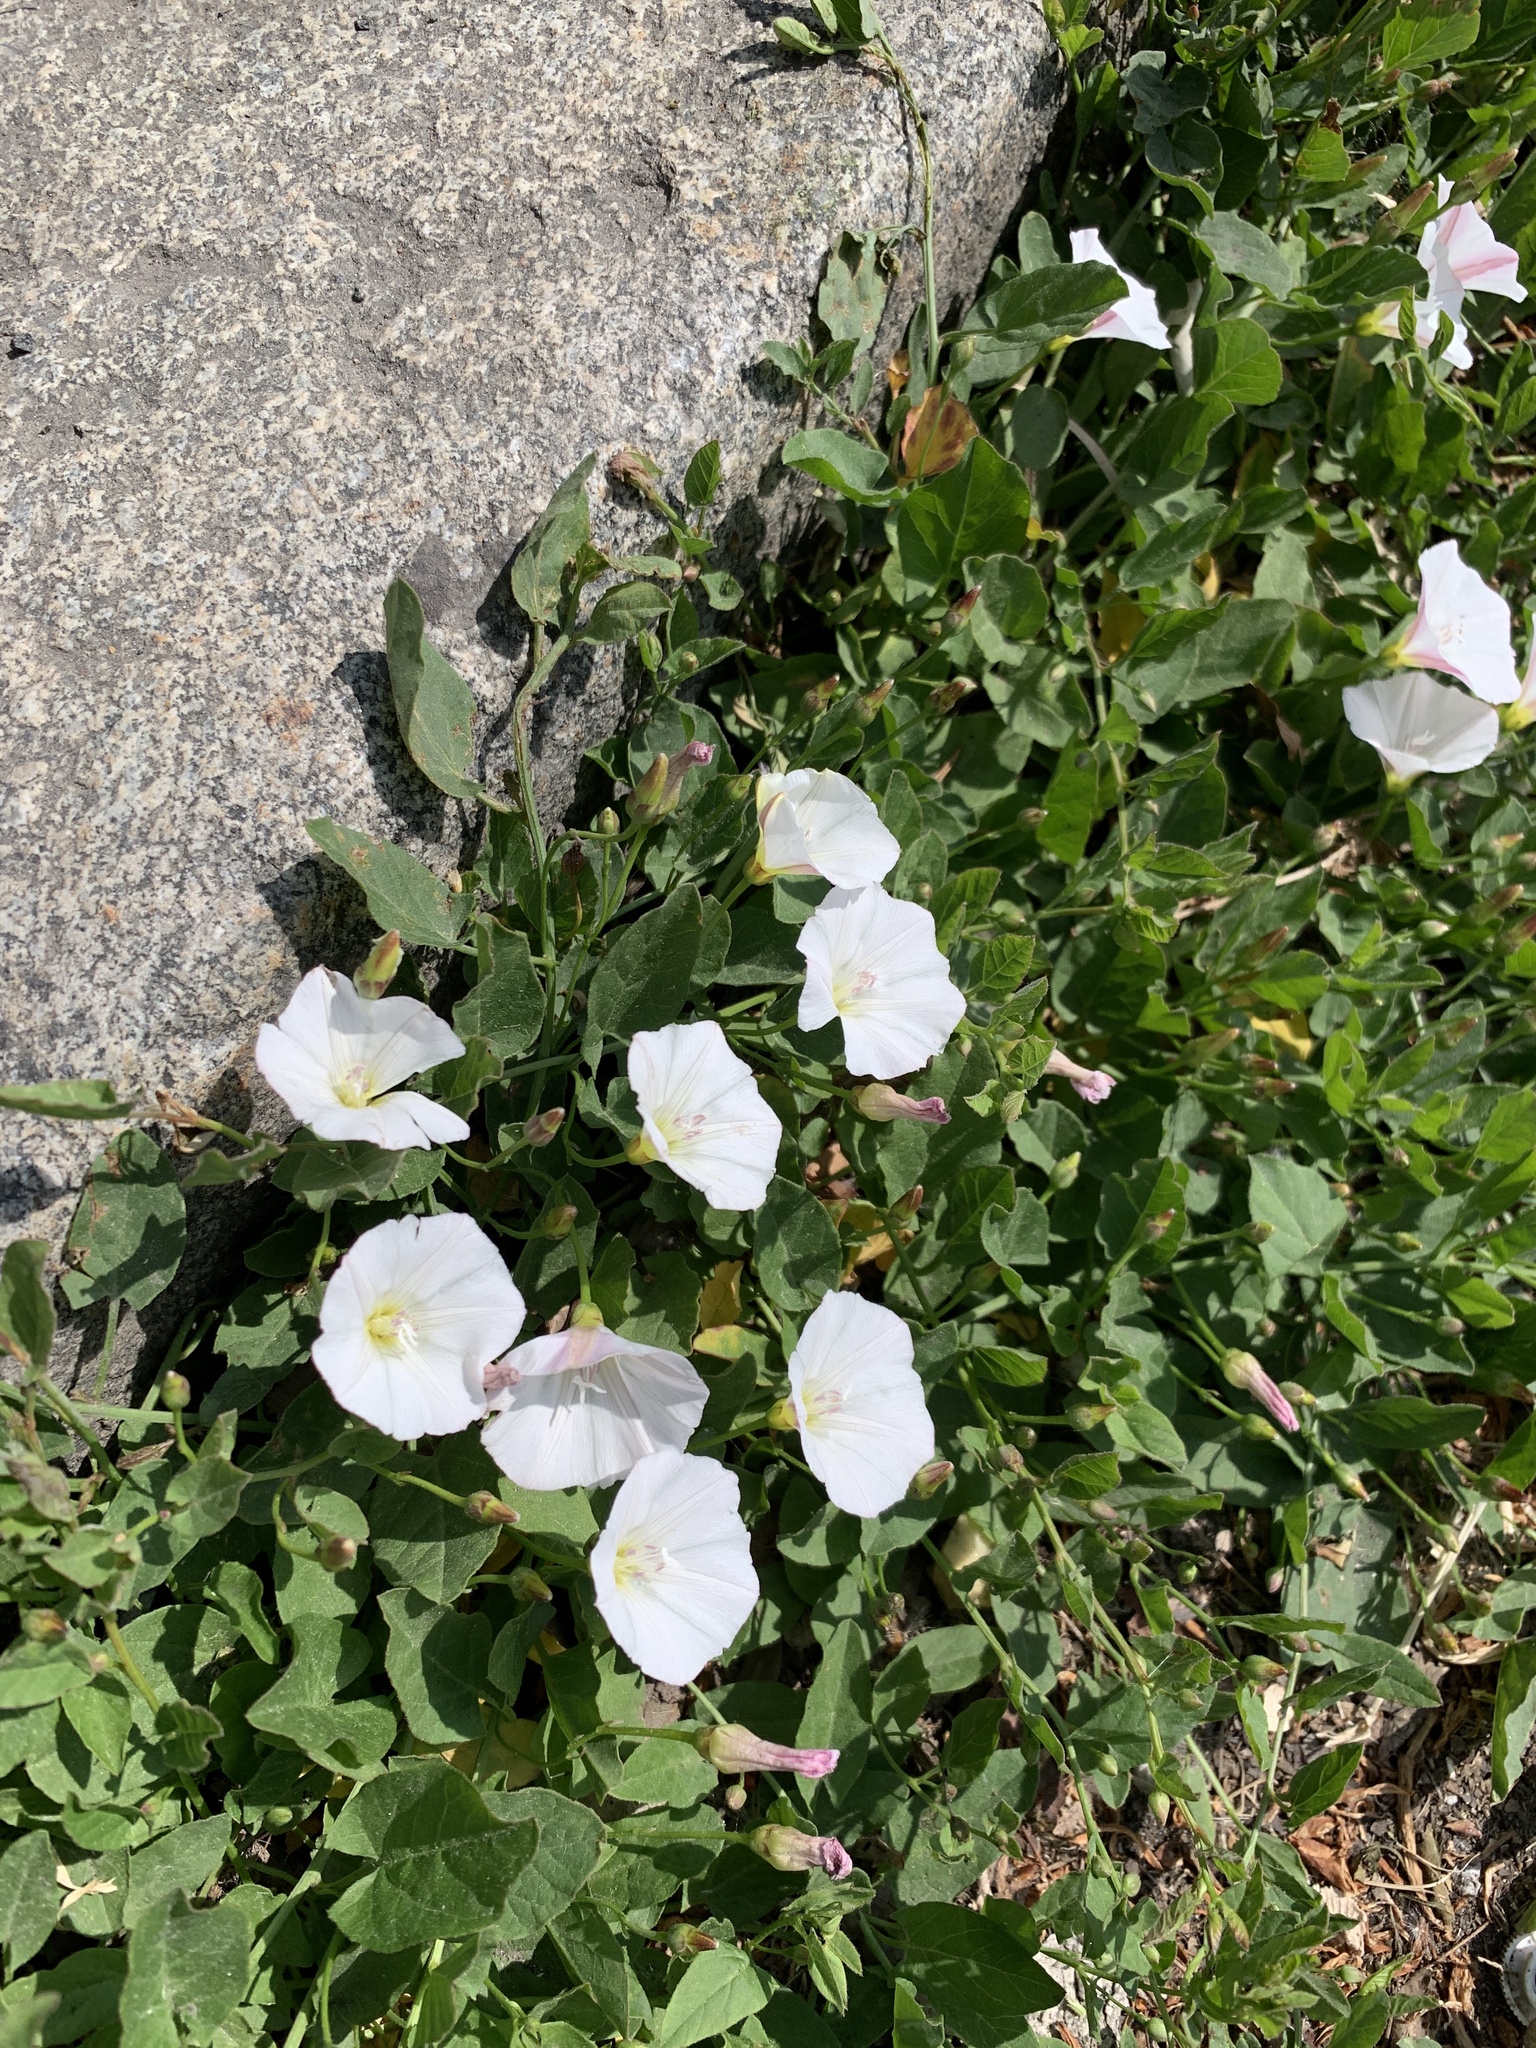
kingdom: Plantae
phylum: Tracheophyta
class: Magnoliopsida
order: Solanales
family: Convolvulaceae
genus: Convolvulus
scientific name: Convolvulus arvensis
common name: Field bindweed
